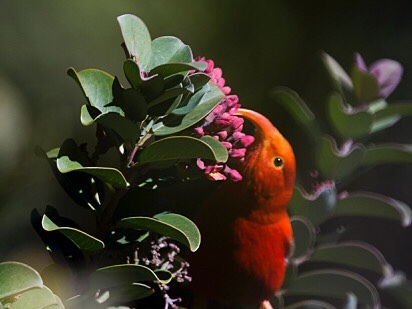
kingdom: Animalia
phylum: Chordata
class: Aves
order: Passeriformes
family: Fringillidae
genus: Vestiaria
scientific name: Vestiaria coccinea
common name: Iiwi
